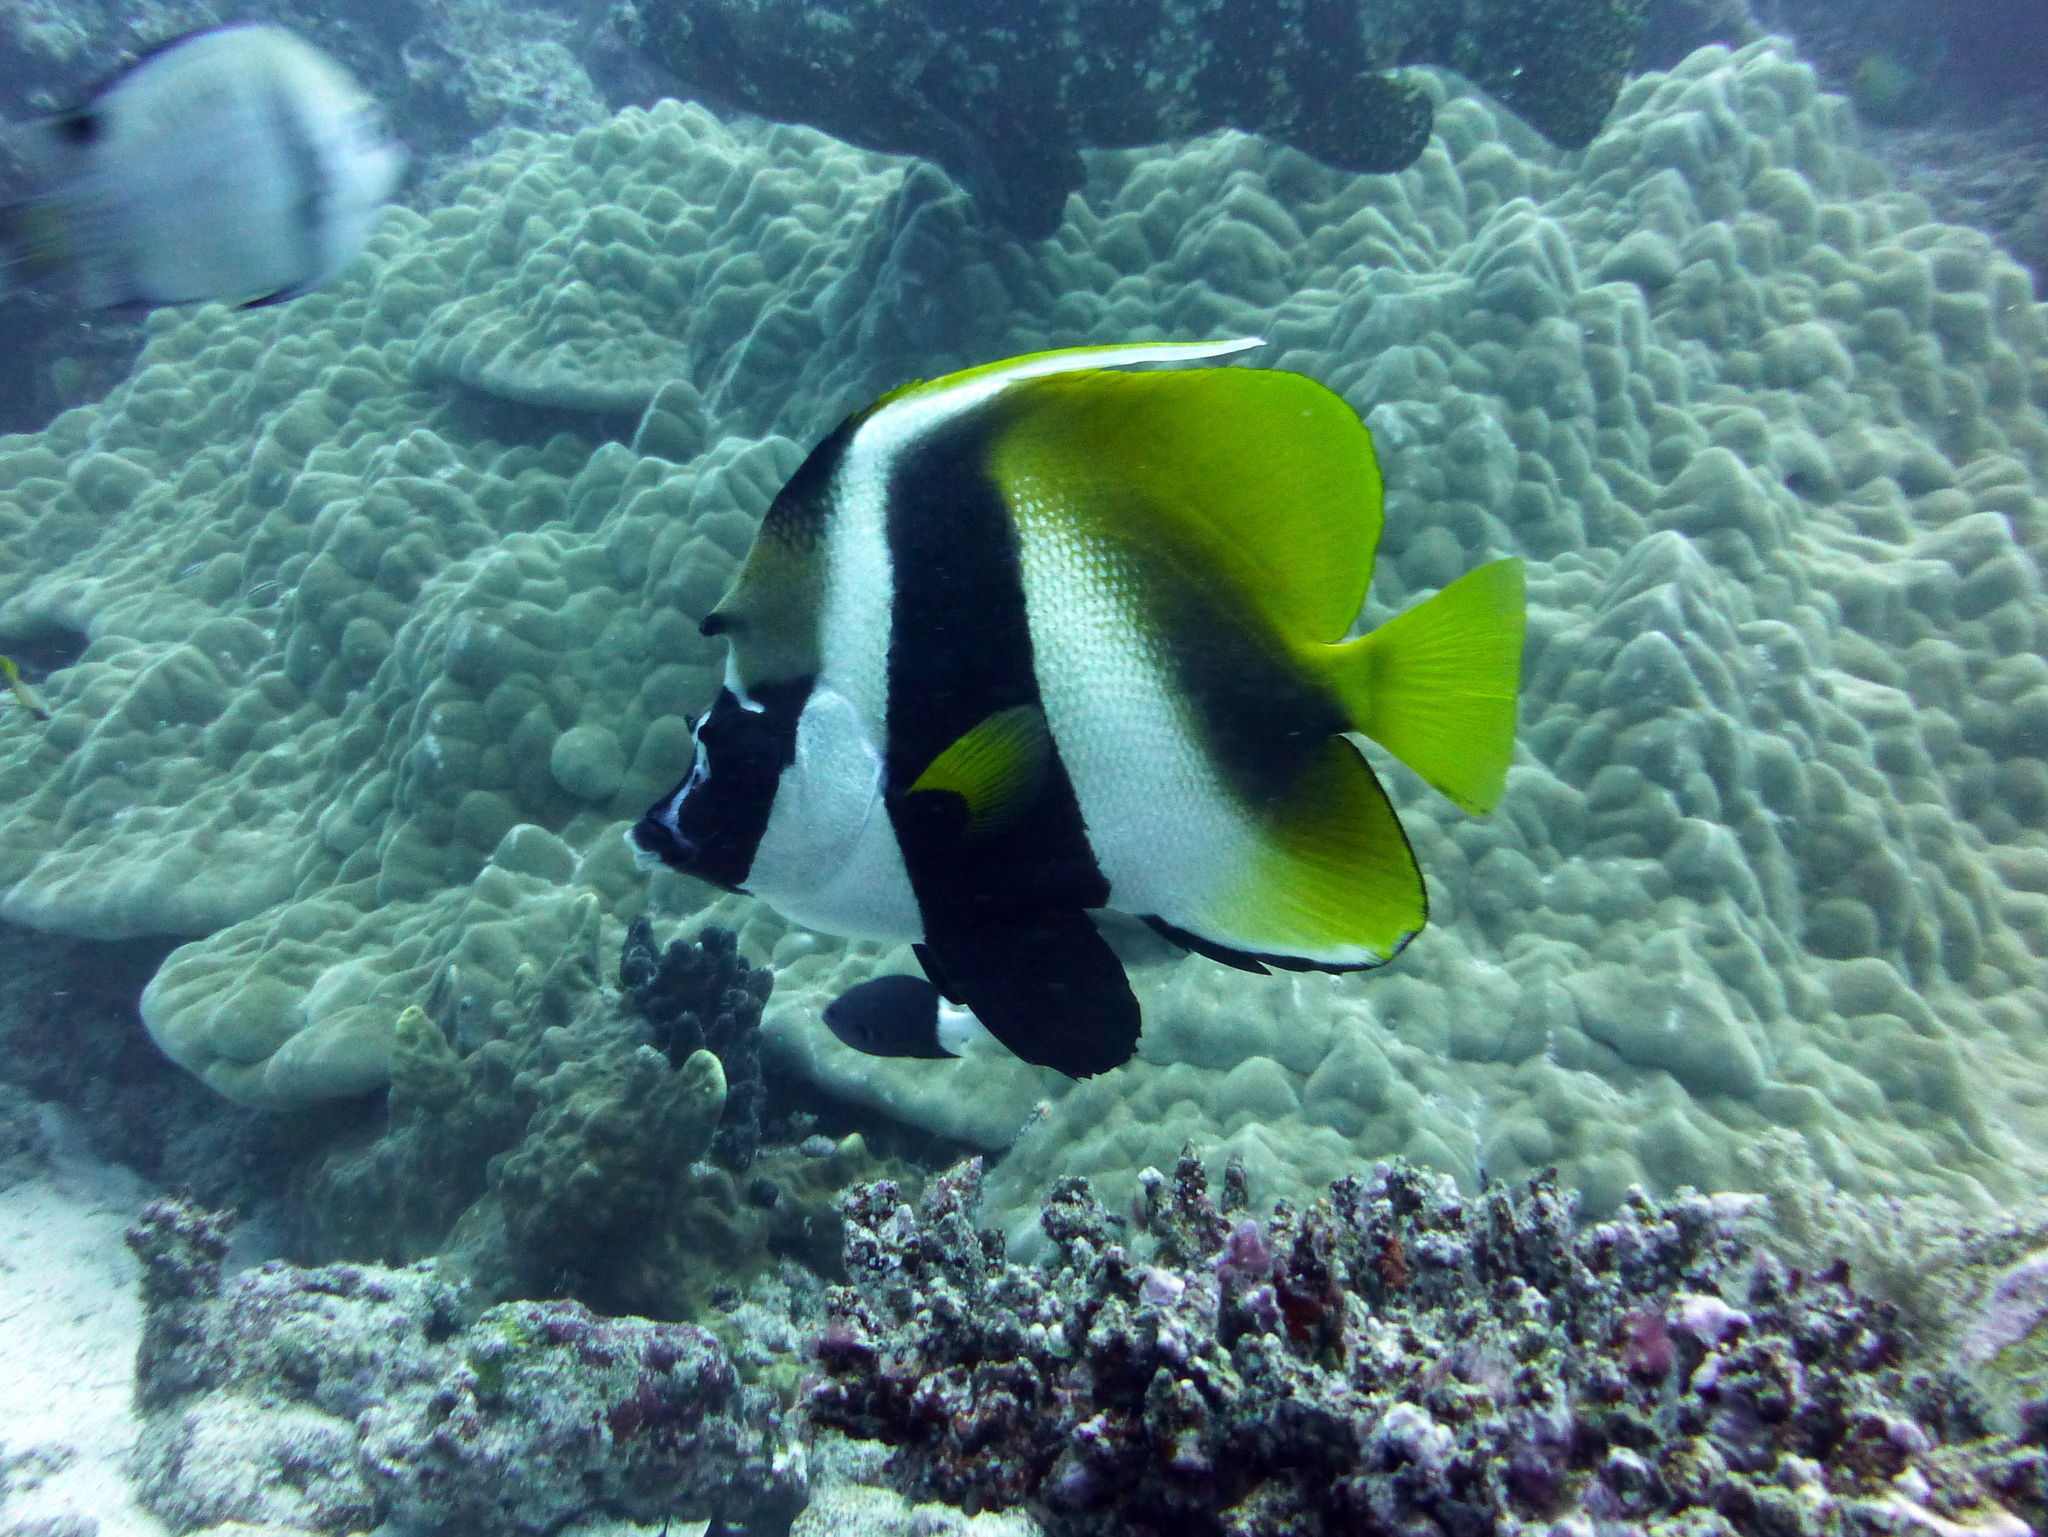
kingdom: Animalia
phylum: Chordata
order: Perciformes
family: Chaetodontidae
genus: Heniochus
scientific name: Heniochus monoceros
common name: Masked bannerfish
